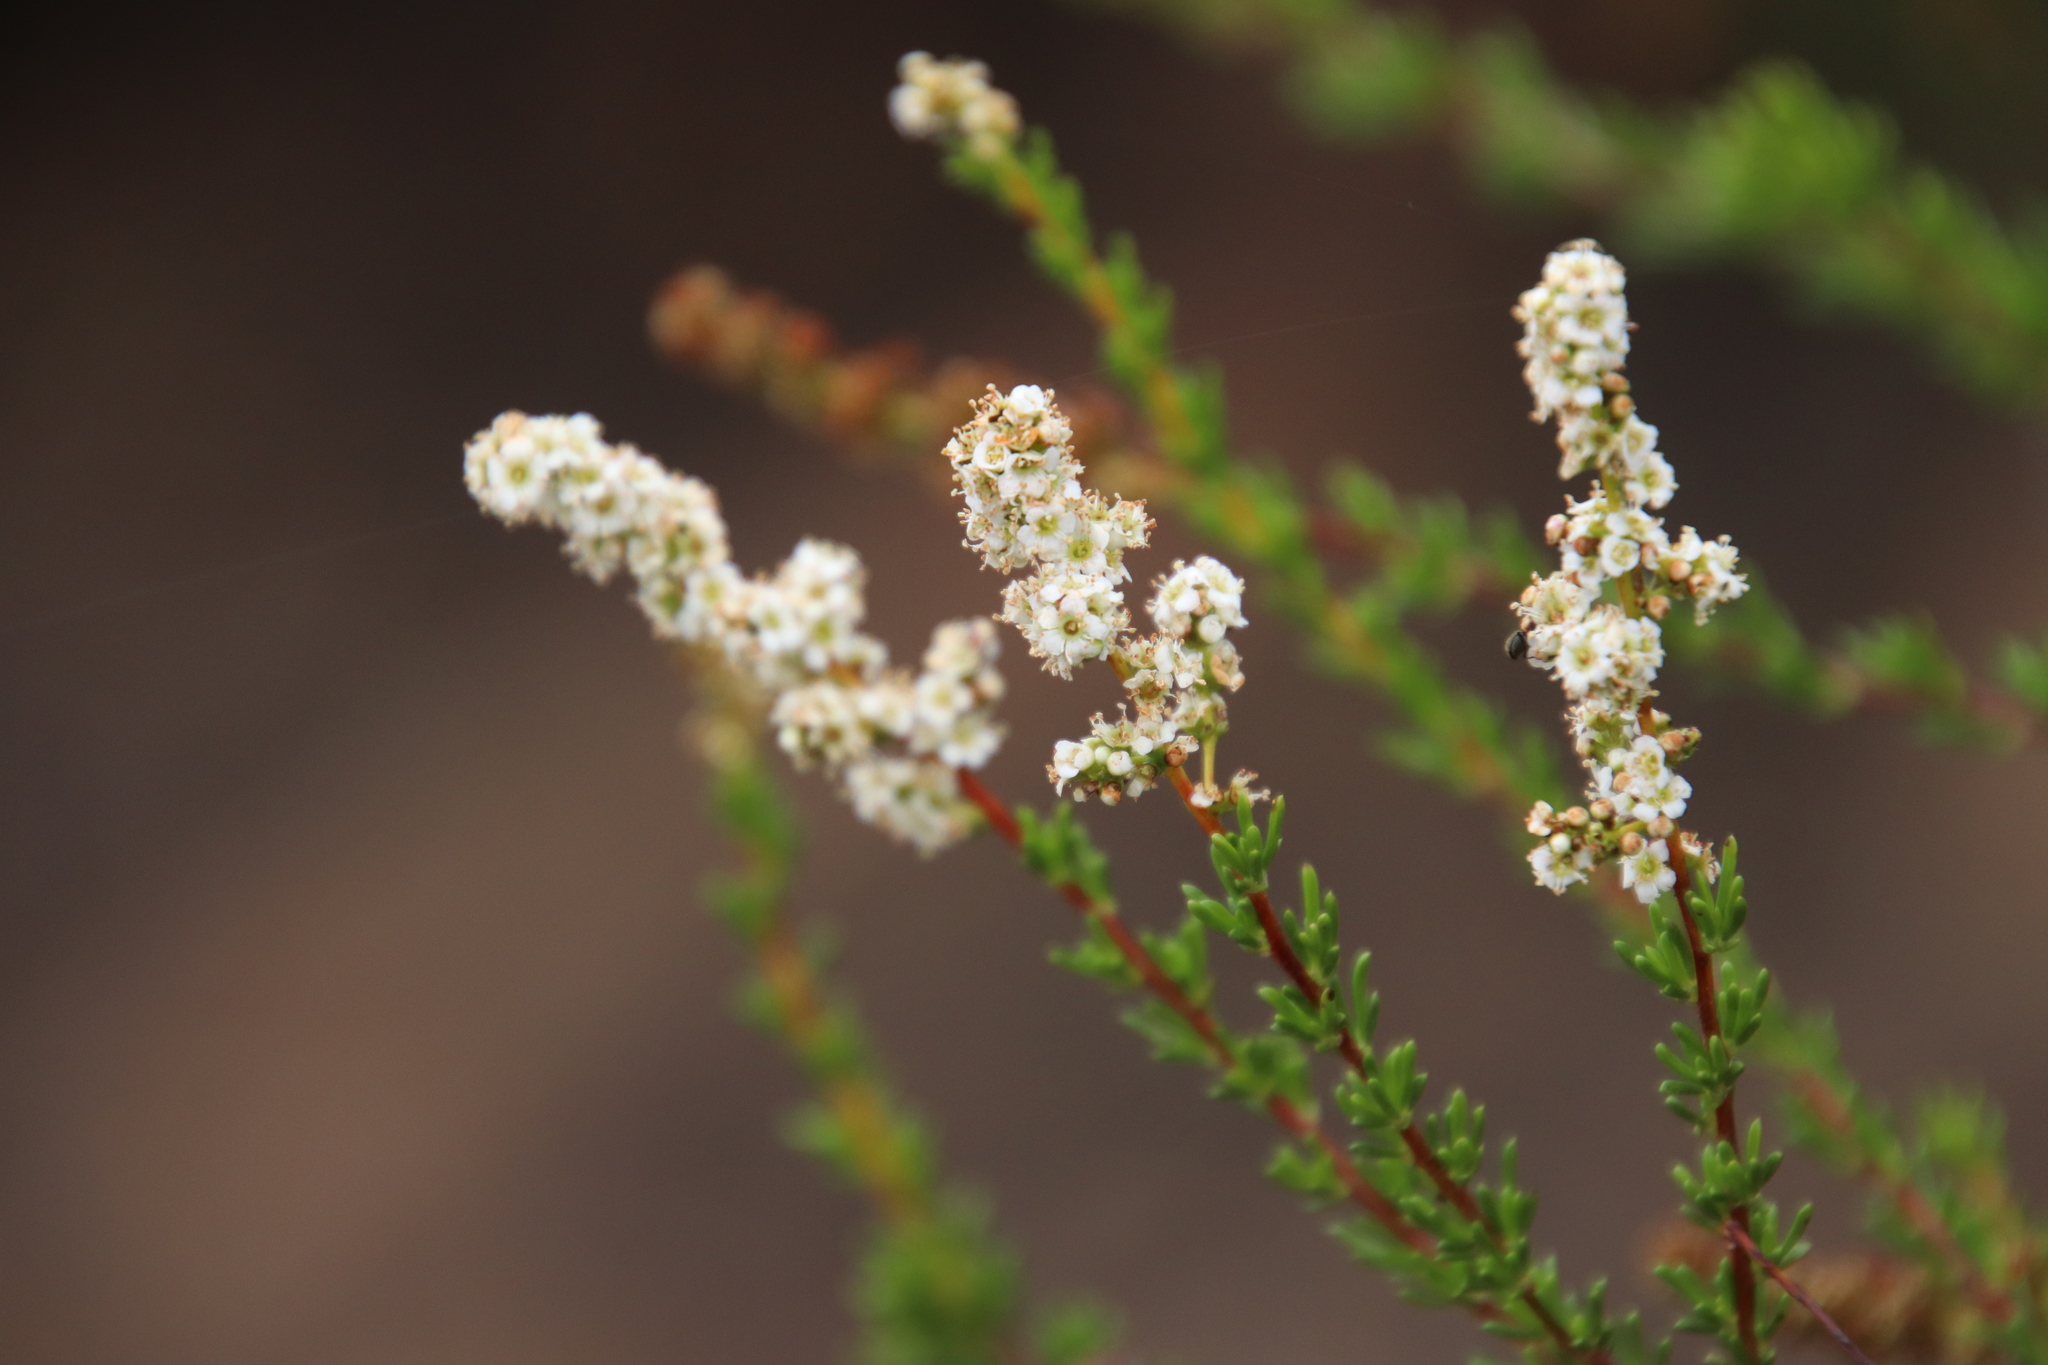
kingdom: Plantae
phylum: Tracheophyta
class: Magnoliopsida
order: Rosales
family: Rosaceae
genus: Adenostoma
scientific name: Adenostoma fasciculatum
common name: Chamise
